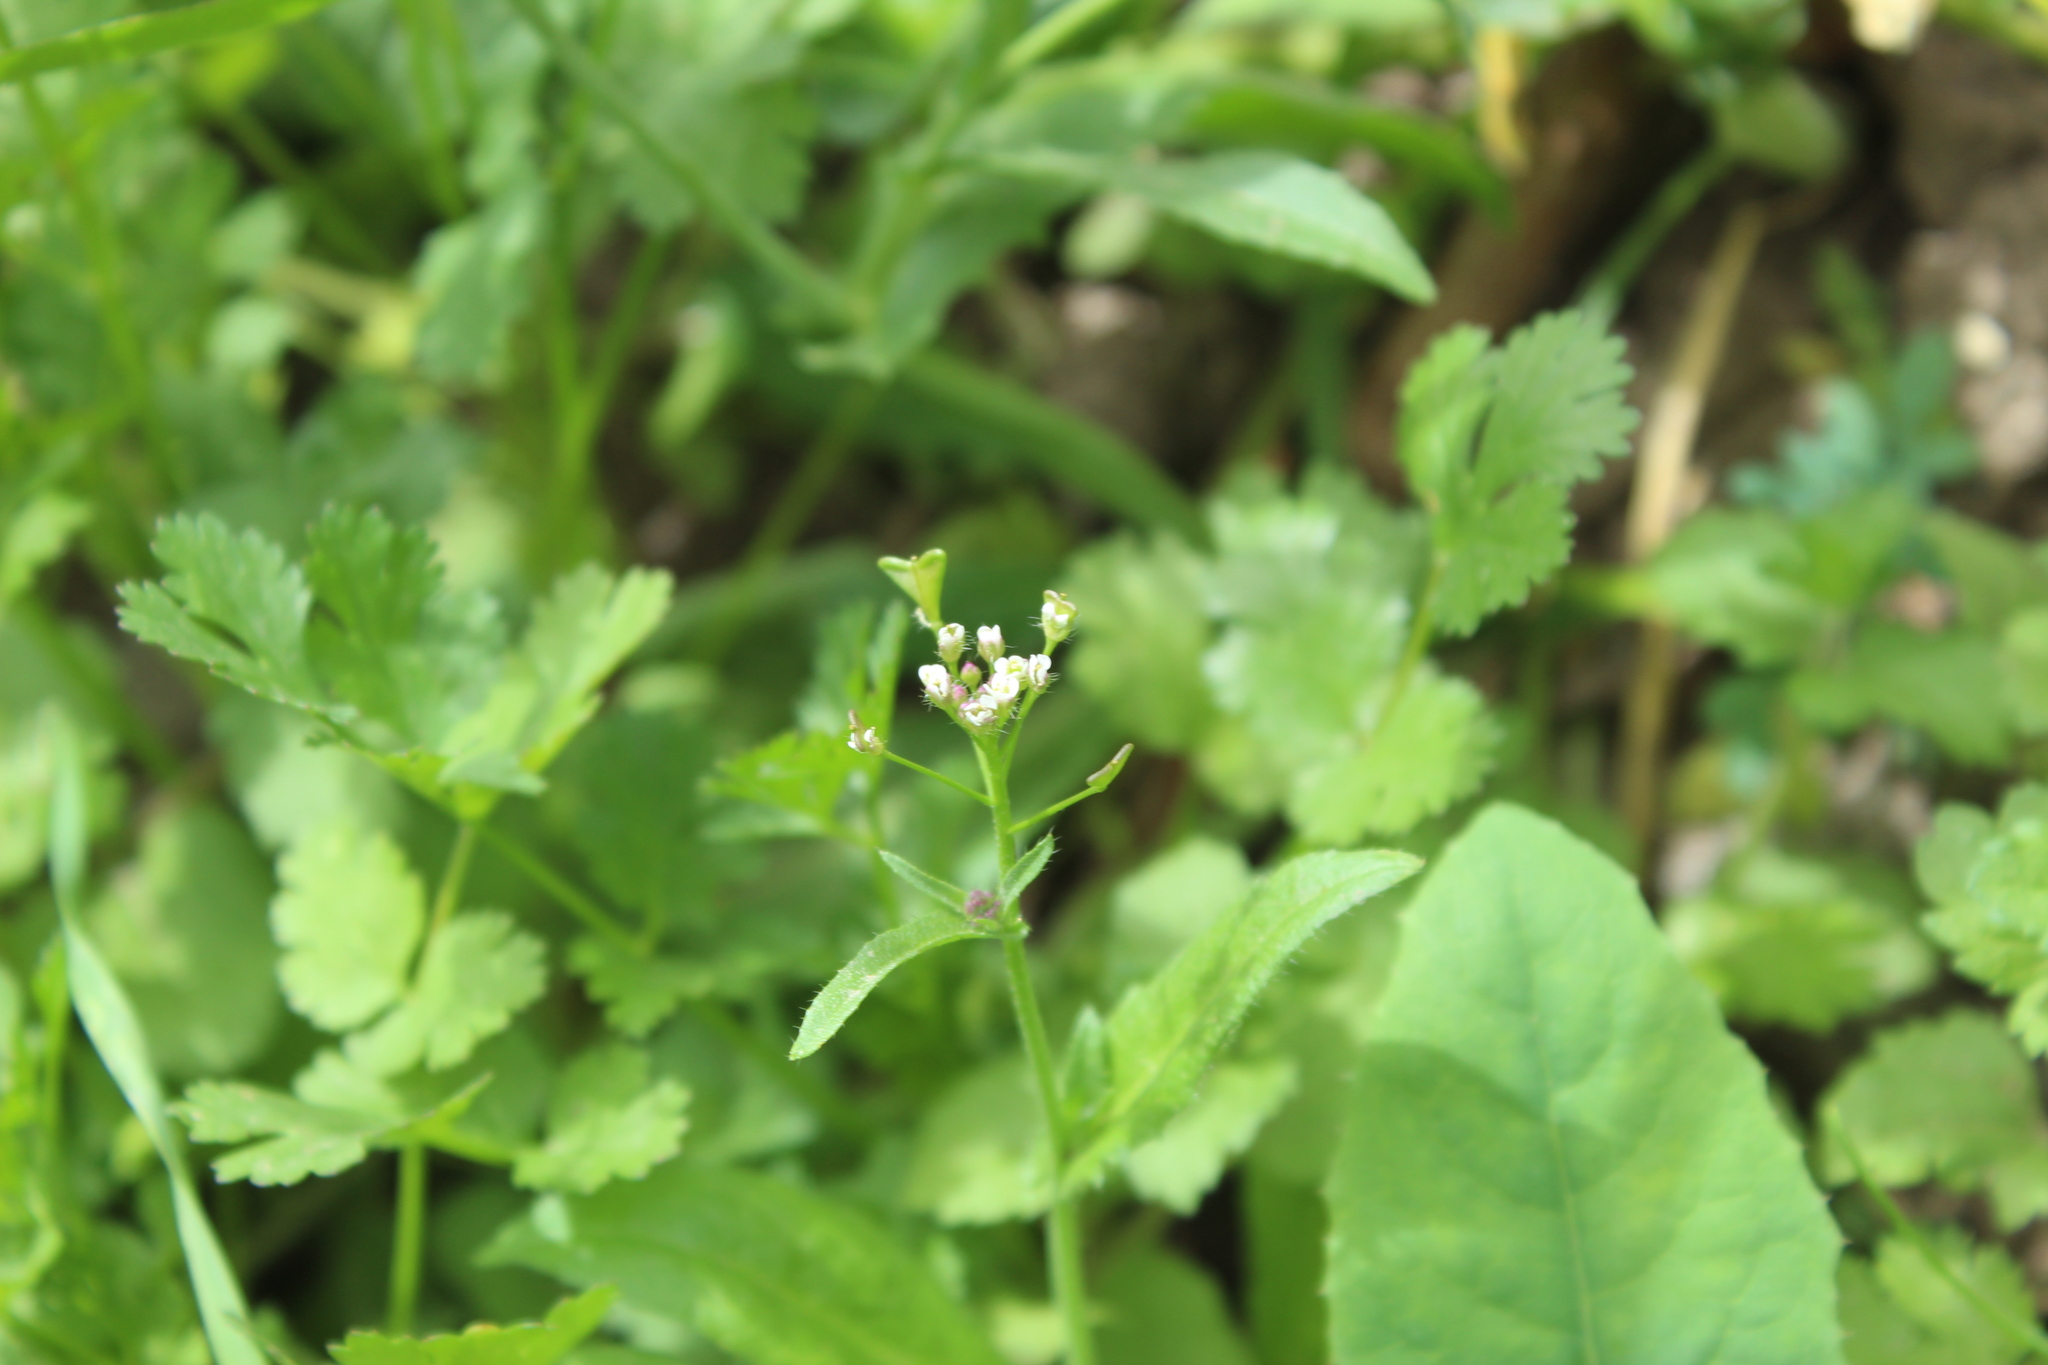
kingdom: Plantae
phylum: Tracheophyta
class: Magnoliopsida
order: Brassicales
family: Brassicaceae
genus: Capsella
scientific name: Capsella bursa-pastoris
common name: Shepherd's purse
